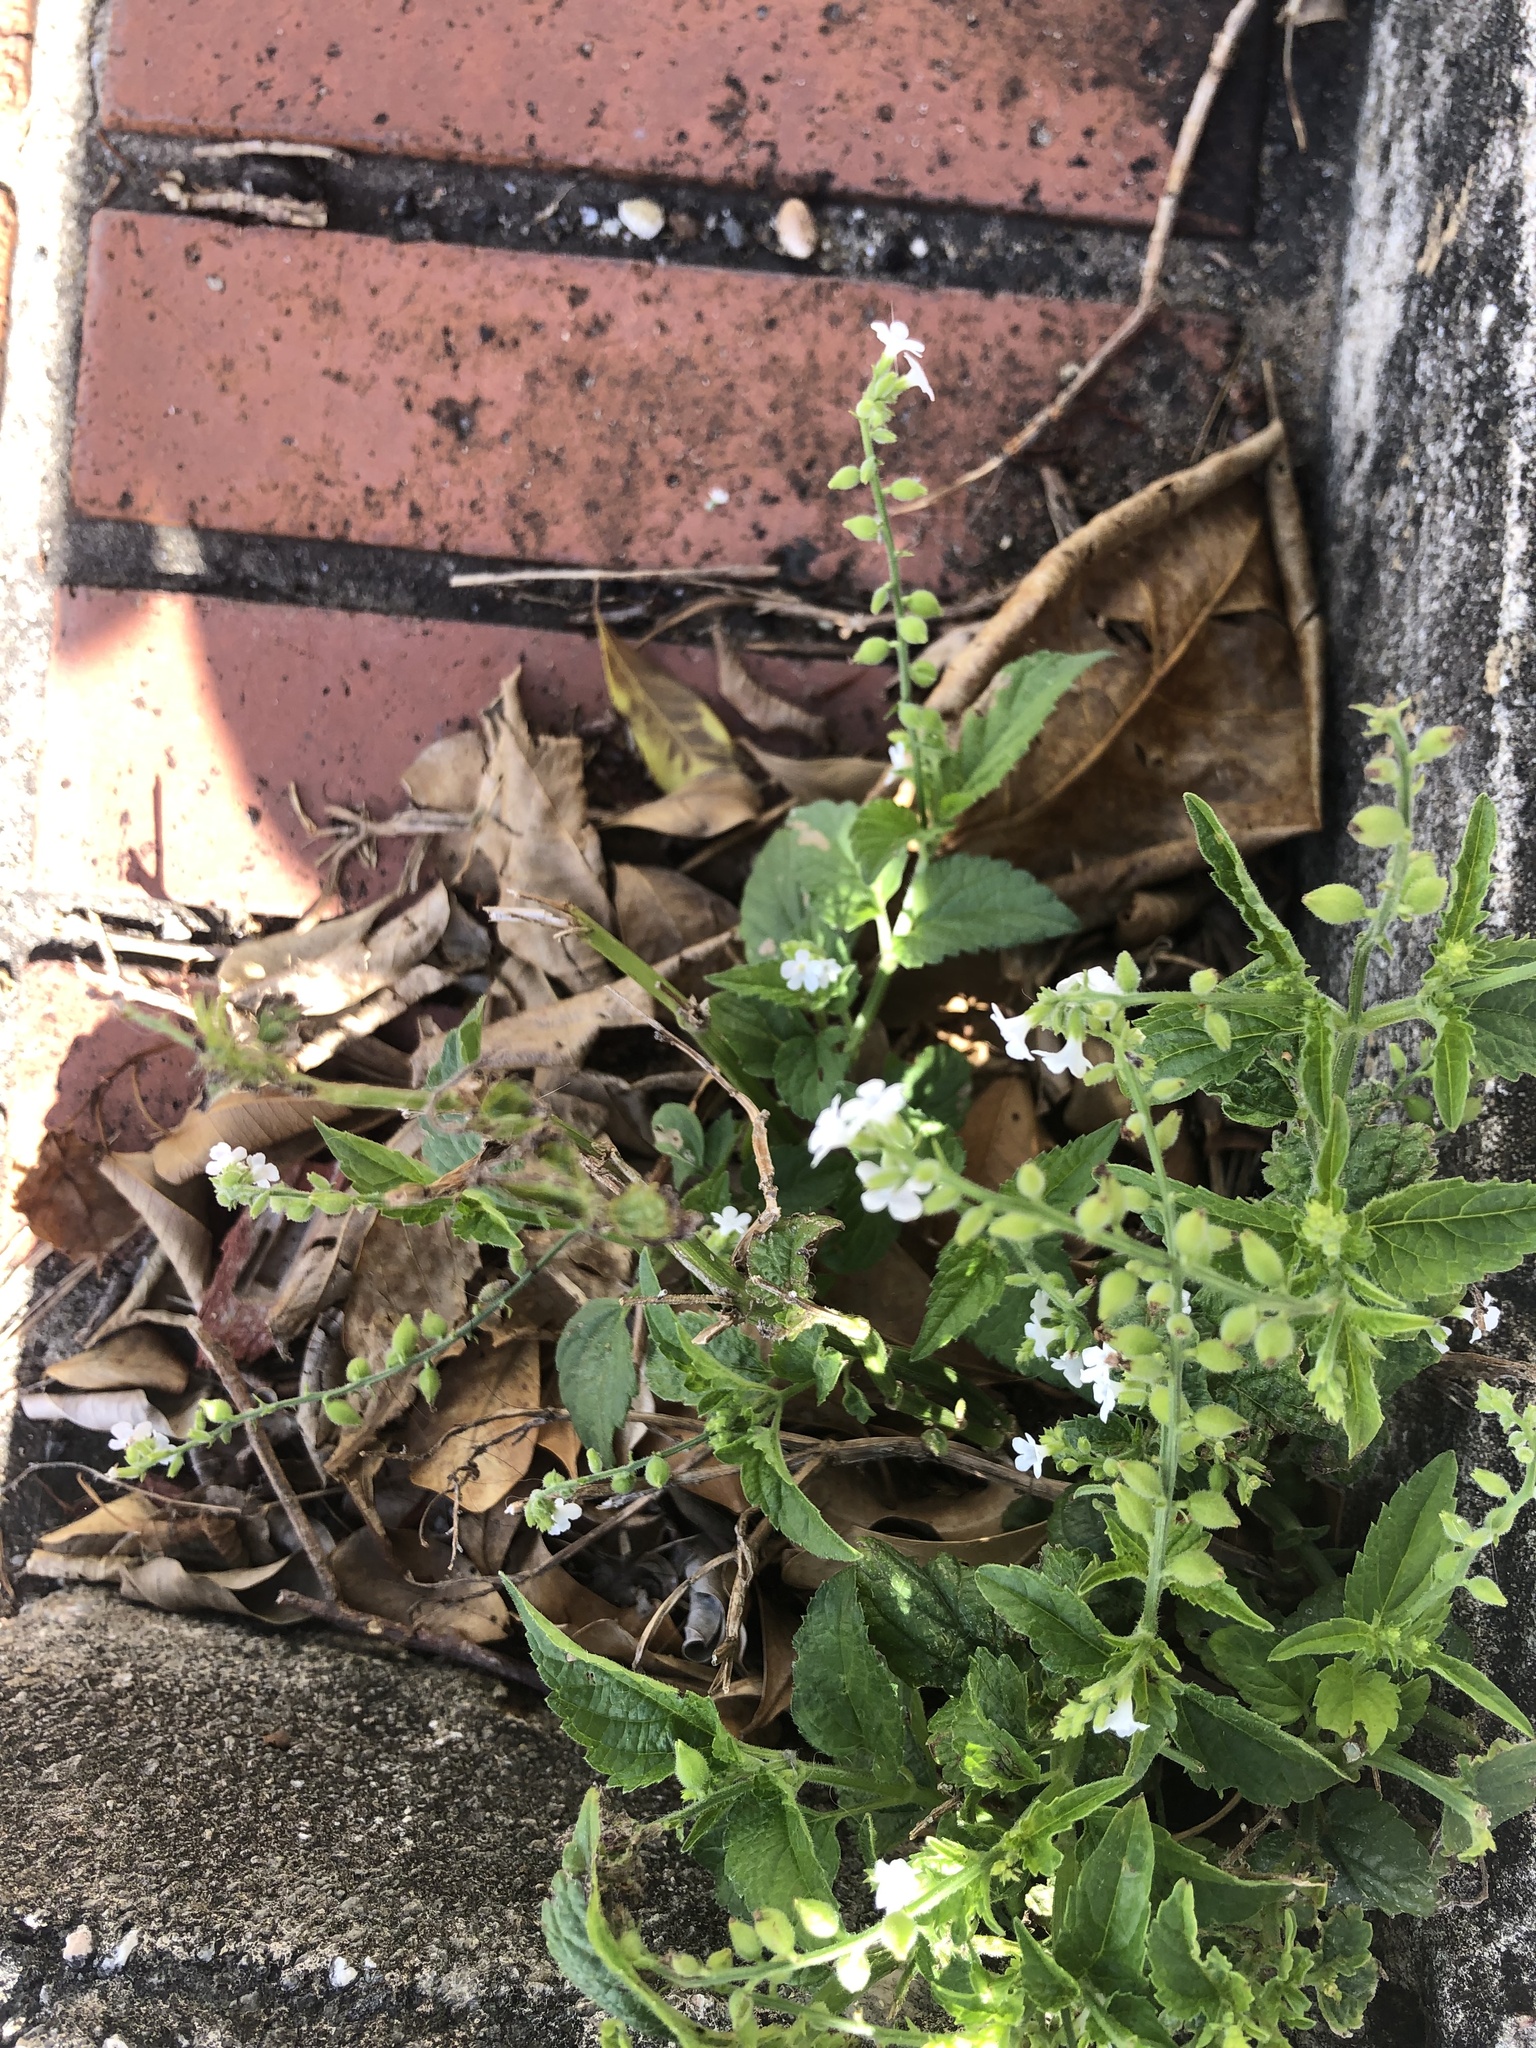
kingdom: Plantae
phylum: Tracheophyta
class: Magnoliopsida
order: Lamiales
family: Verbenaceae
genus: Priva
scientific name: Priva lappulacea
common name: Fasten-'pon-coat
